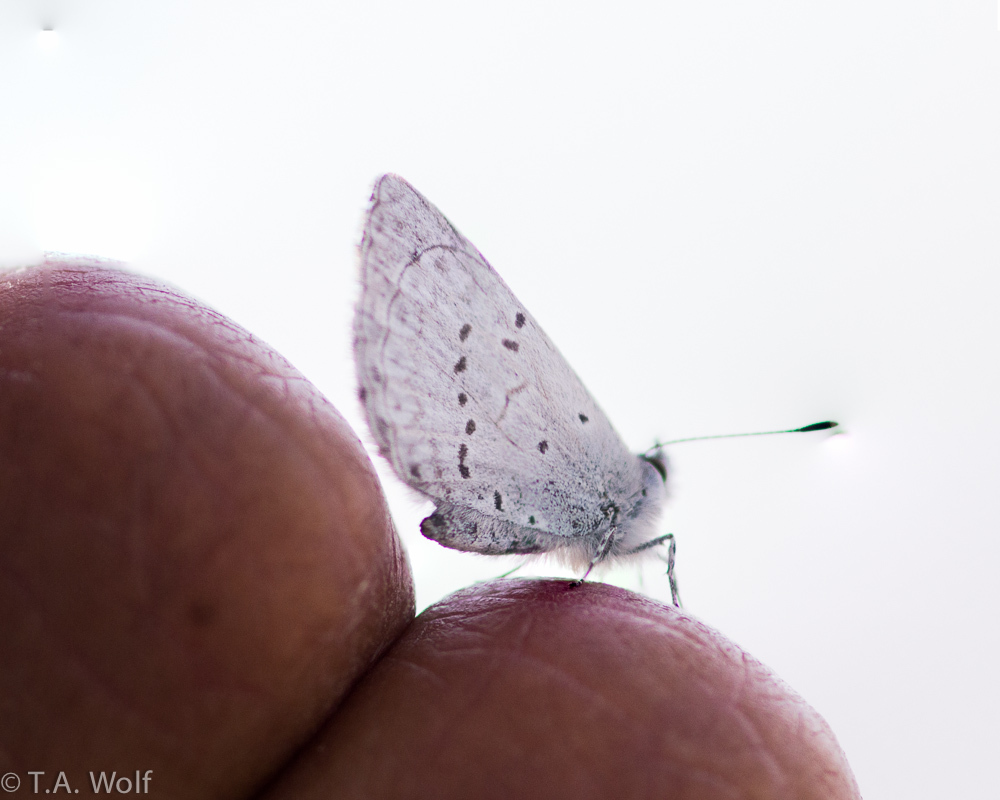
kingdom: Animalia
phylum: Arthropoda
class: Insecta
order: Lepidoptera
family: Lycaenidae
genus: Celastrina
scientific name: Celastrina ladon
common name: Spring azure
